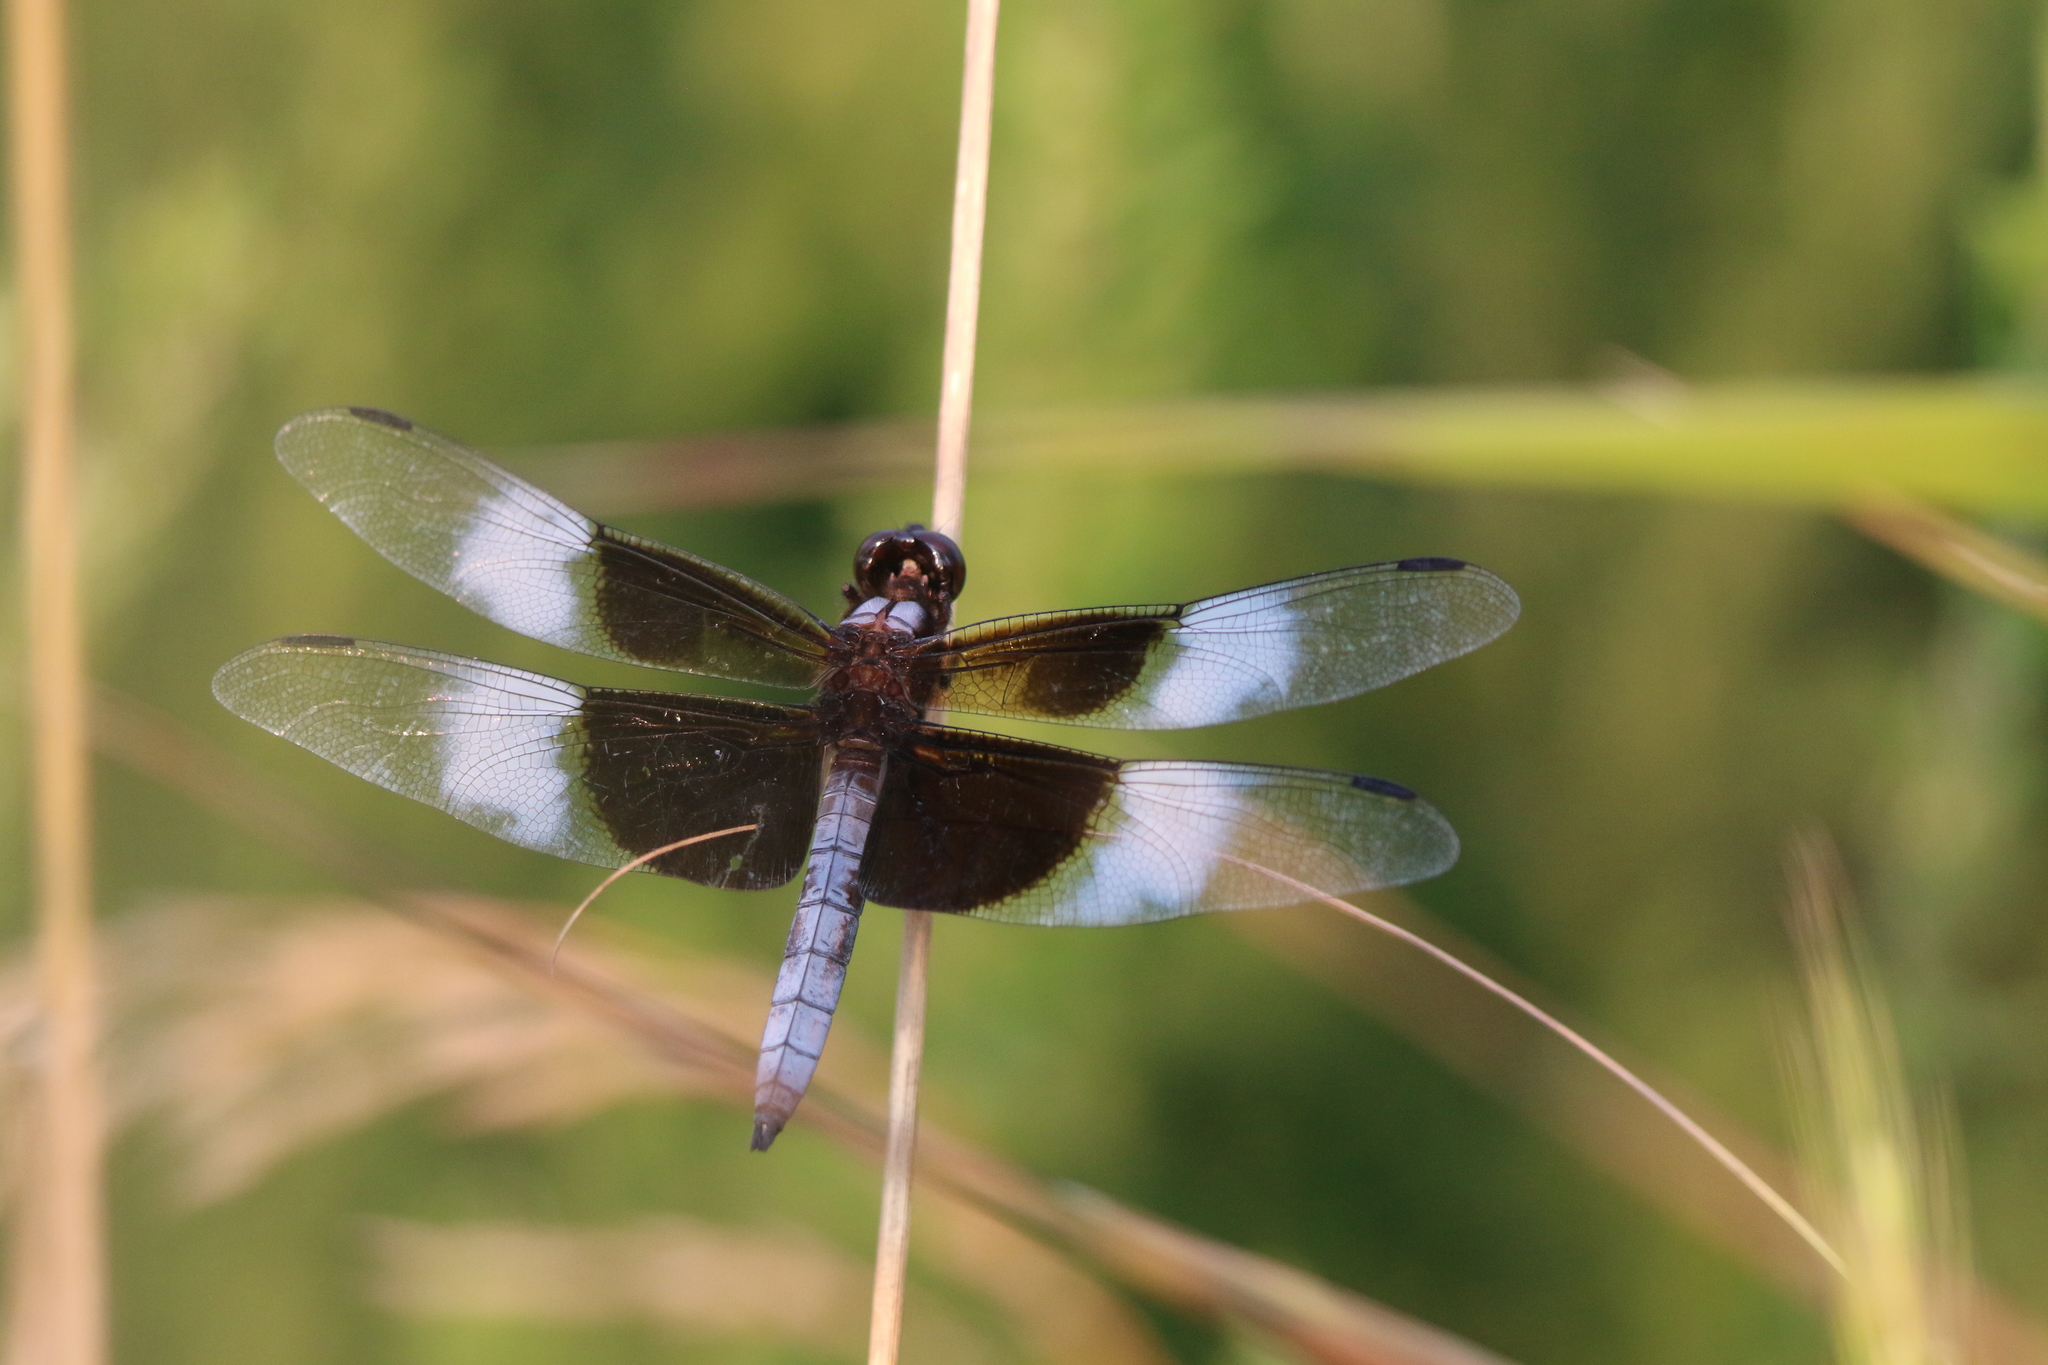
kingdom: Animalia
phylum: Arthropoda
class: Insecta
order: Odonata
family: Libellulidae
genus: Libellula
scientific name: Libellula luctuosa
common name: Widow skimmer
